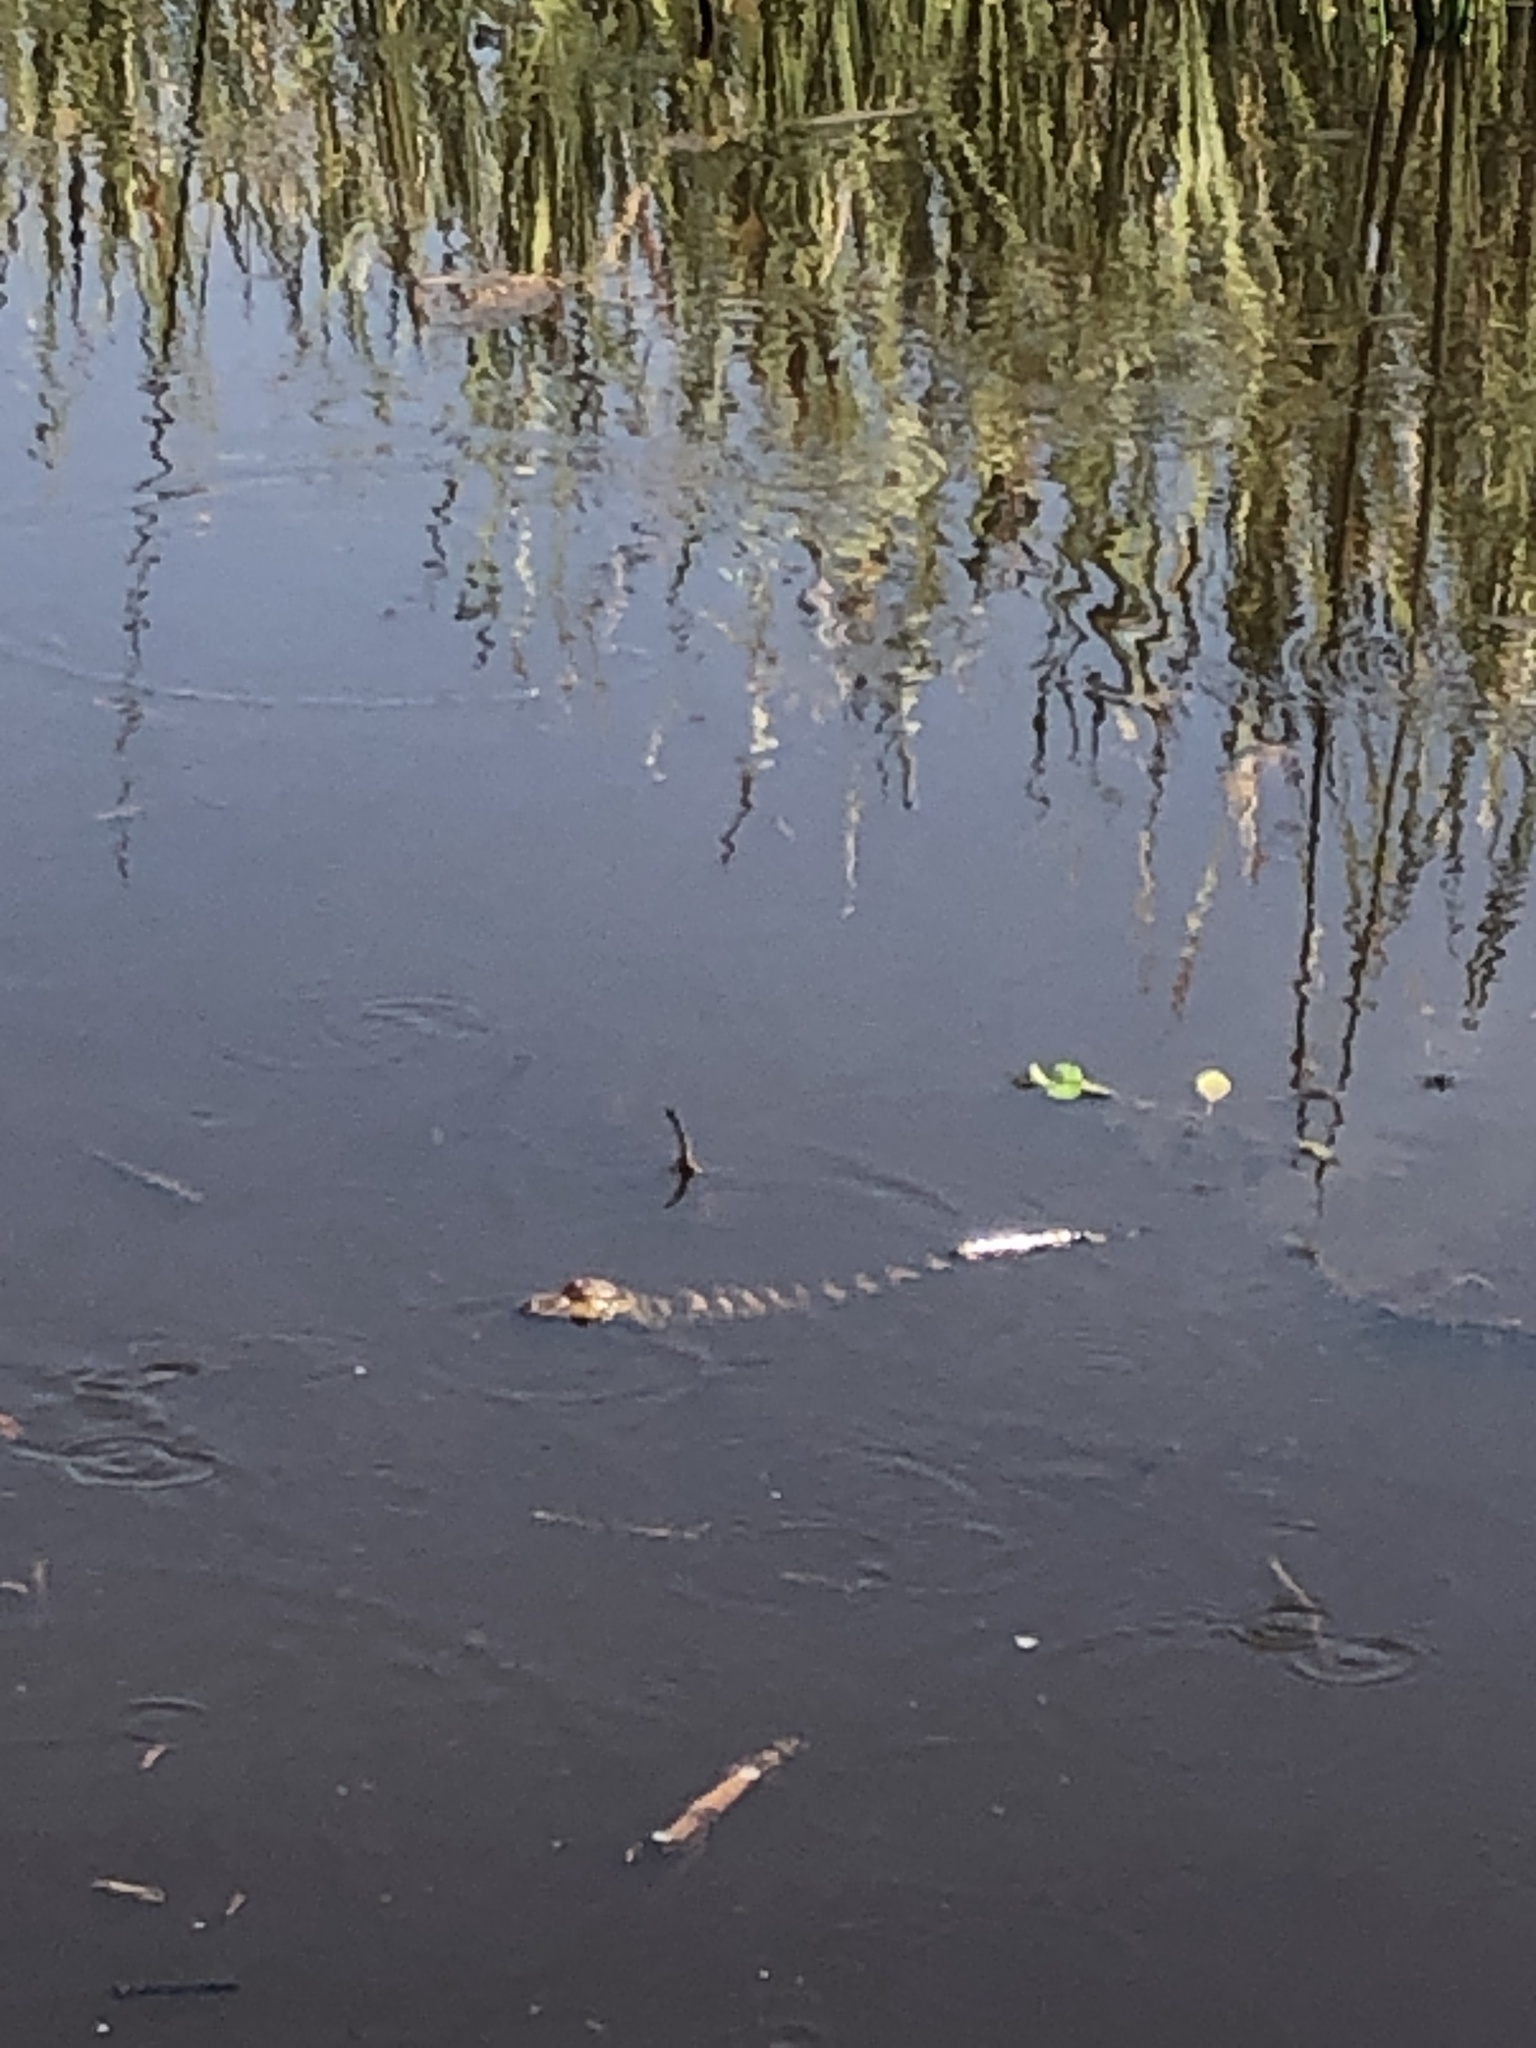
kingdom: Animalia
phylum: Chordata
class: Crocodylia
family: Alligatoridae
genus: Alligator
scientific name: Alligator mississippiensis
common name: American alligator
